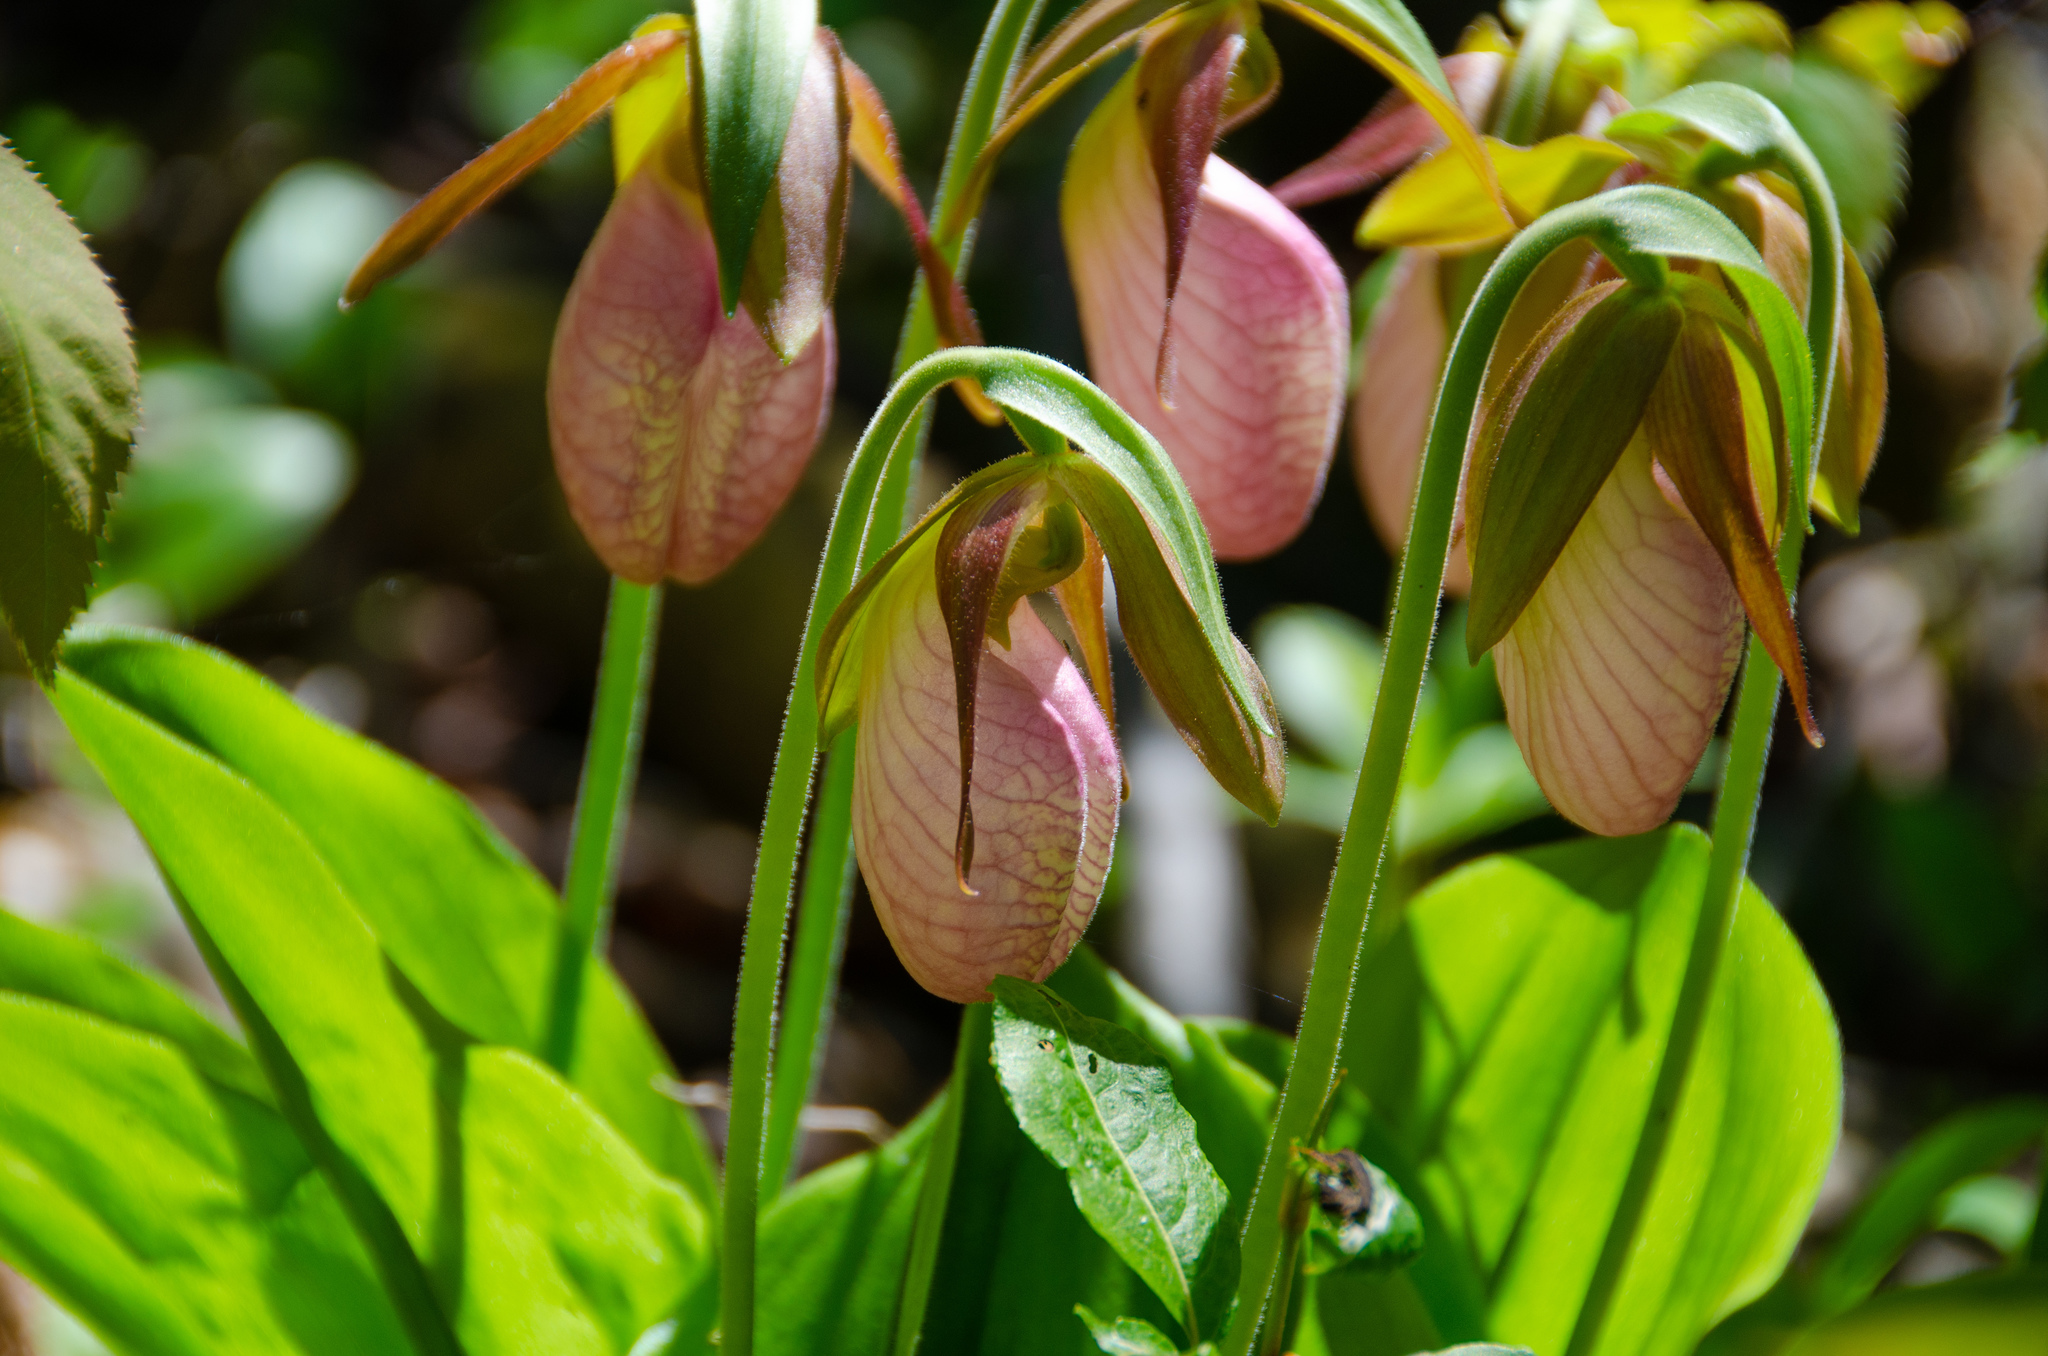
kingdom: Plantae
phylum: Tracheophyta
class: Liliopsida
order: Asparagales
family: Orchidaceae
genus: Cypripedium
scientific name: Cypripedium acaule
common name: Pink lady's-slipper
